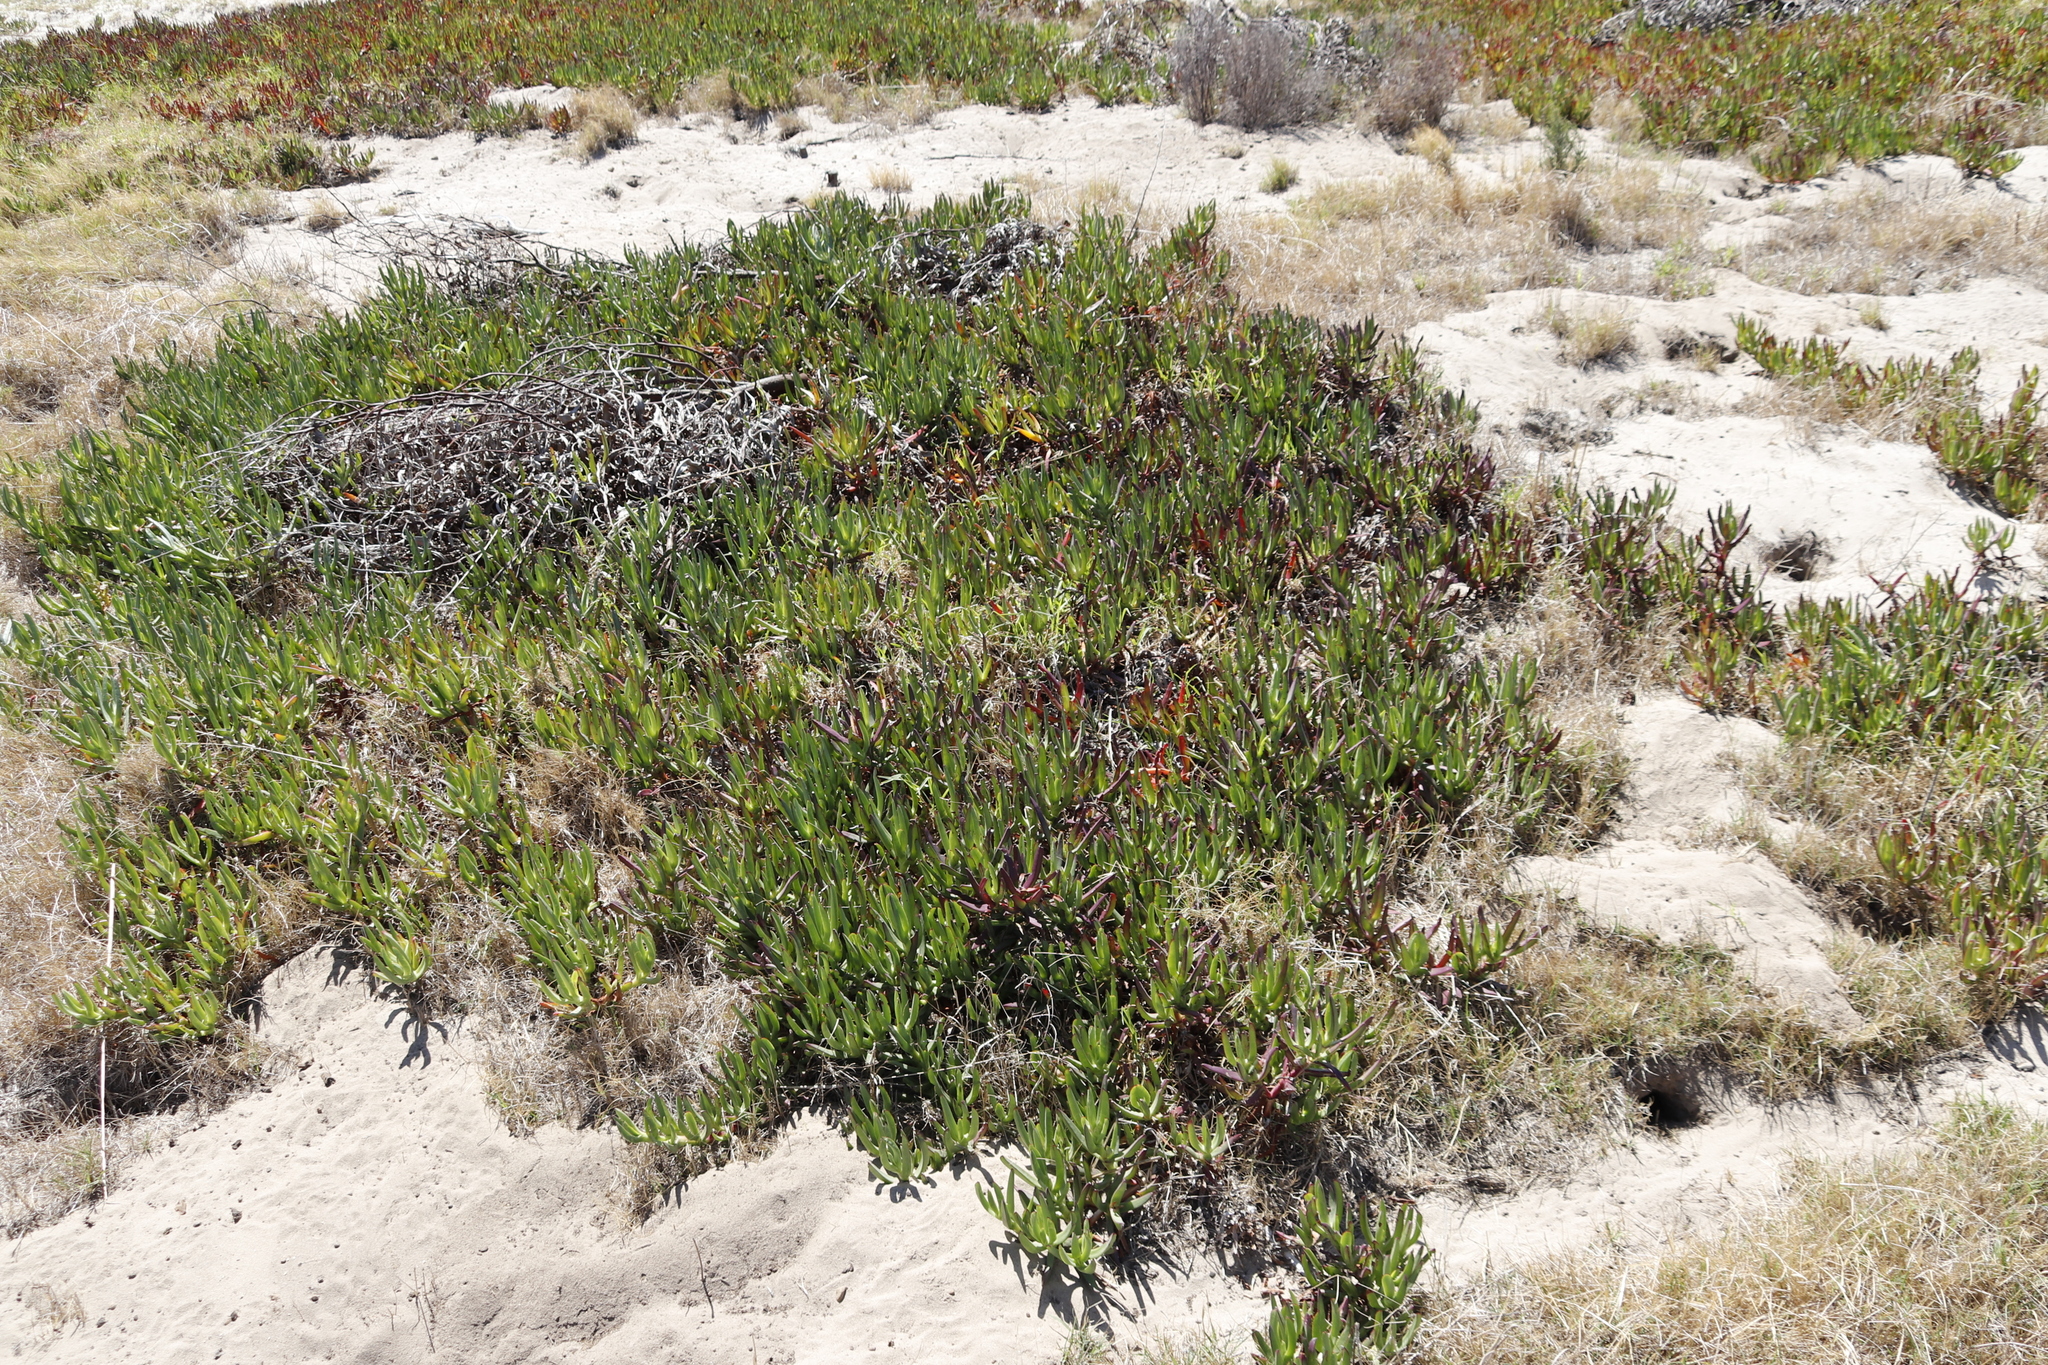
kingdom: Plantae
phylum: Tracheophyta
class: Magnoliopsida
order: Caryophyllales
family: Aizoaceae
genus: Carpobrotus
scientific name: Carpobrotus edulis
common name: Hottentot-fig
